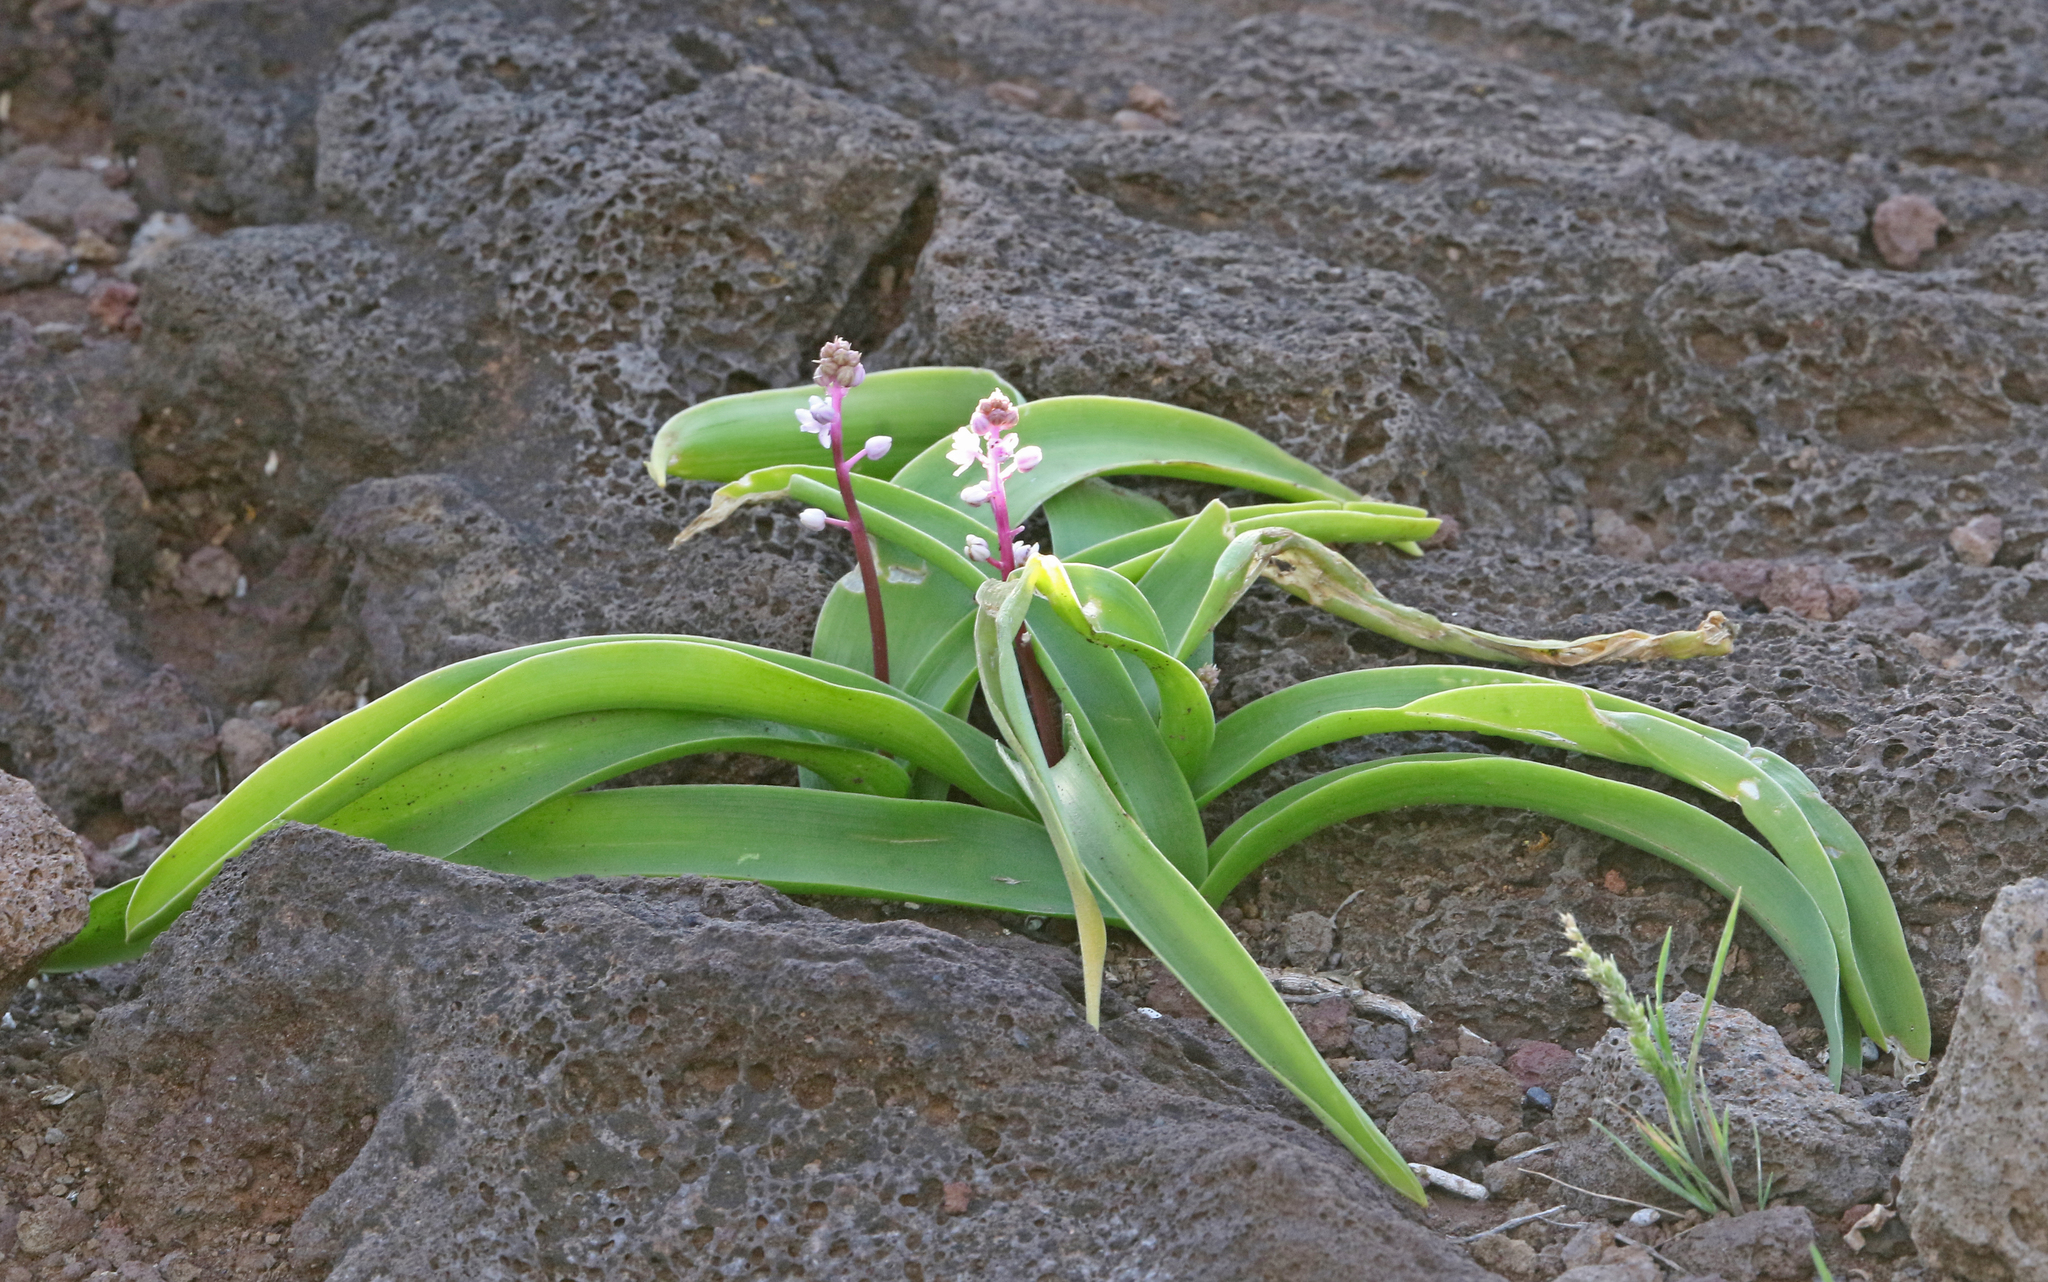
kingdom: Plantae
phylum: Tracheophyta
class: Liliopsida
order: Asparagales
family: Asparagaceae
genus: Scilla
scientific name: Scilla haemorrhoidalis
